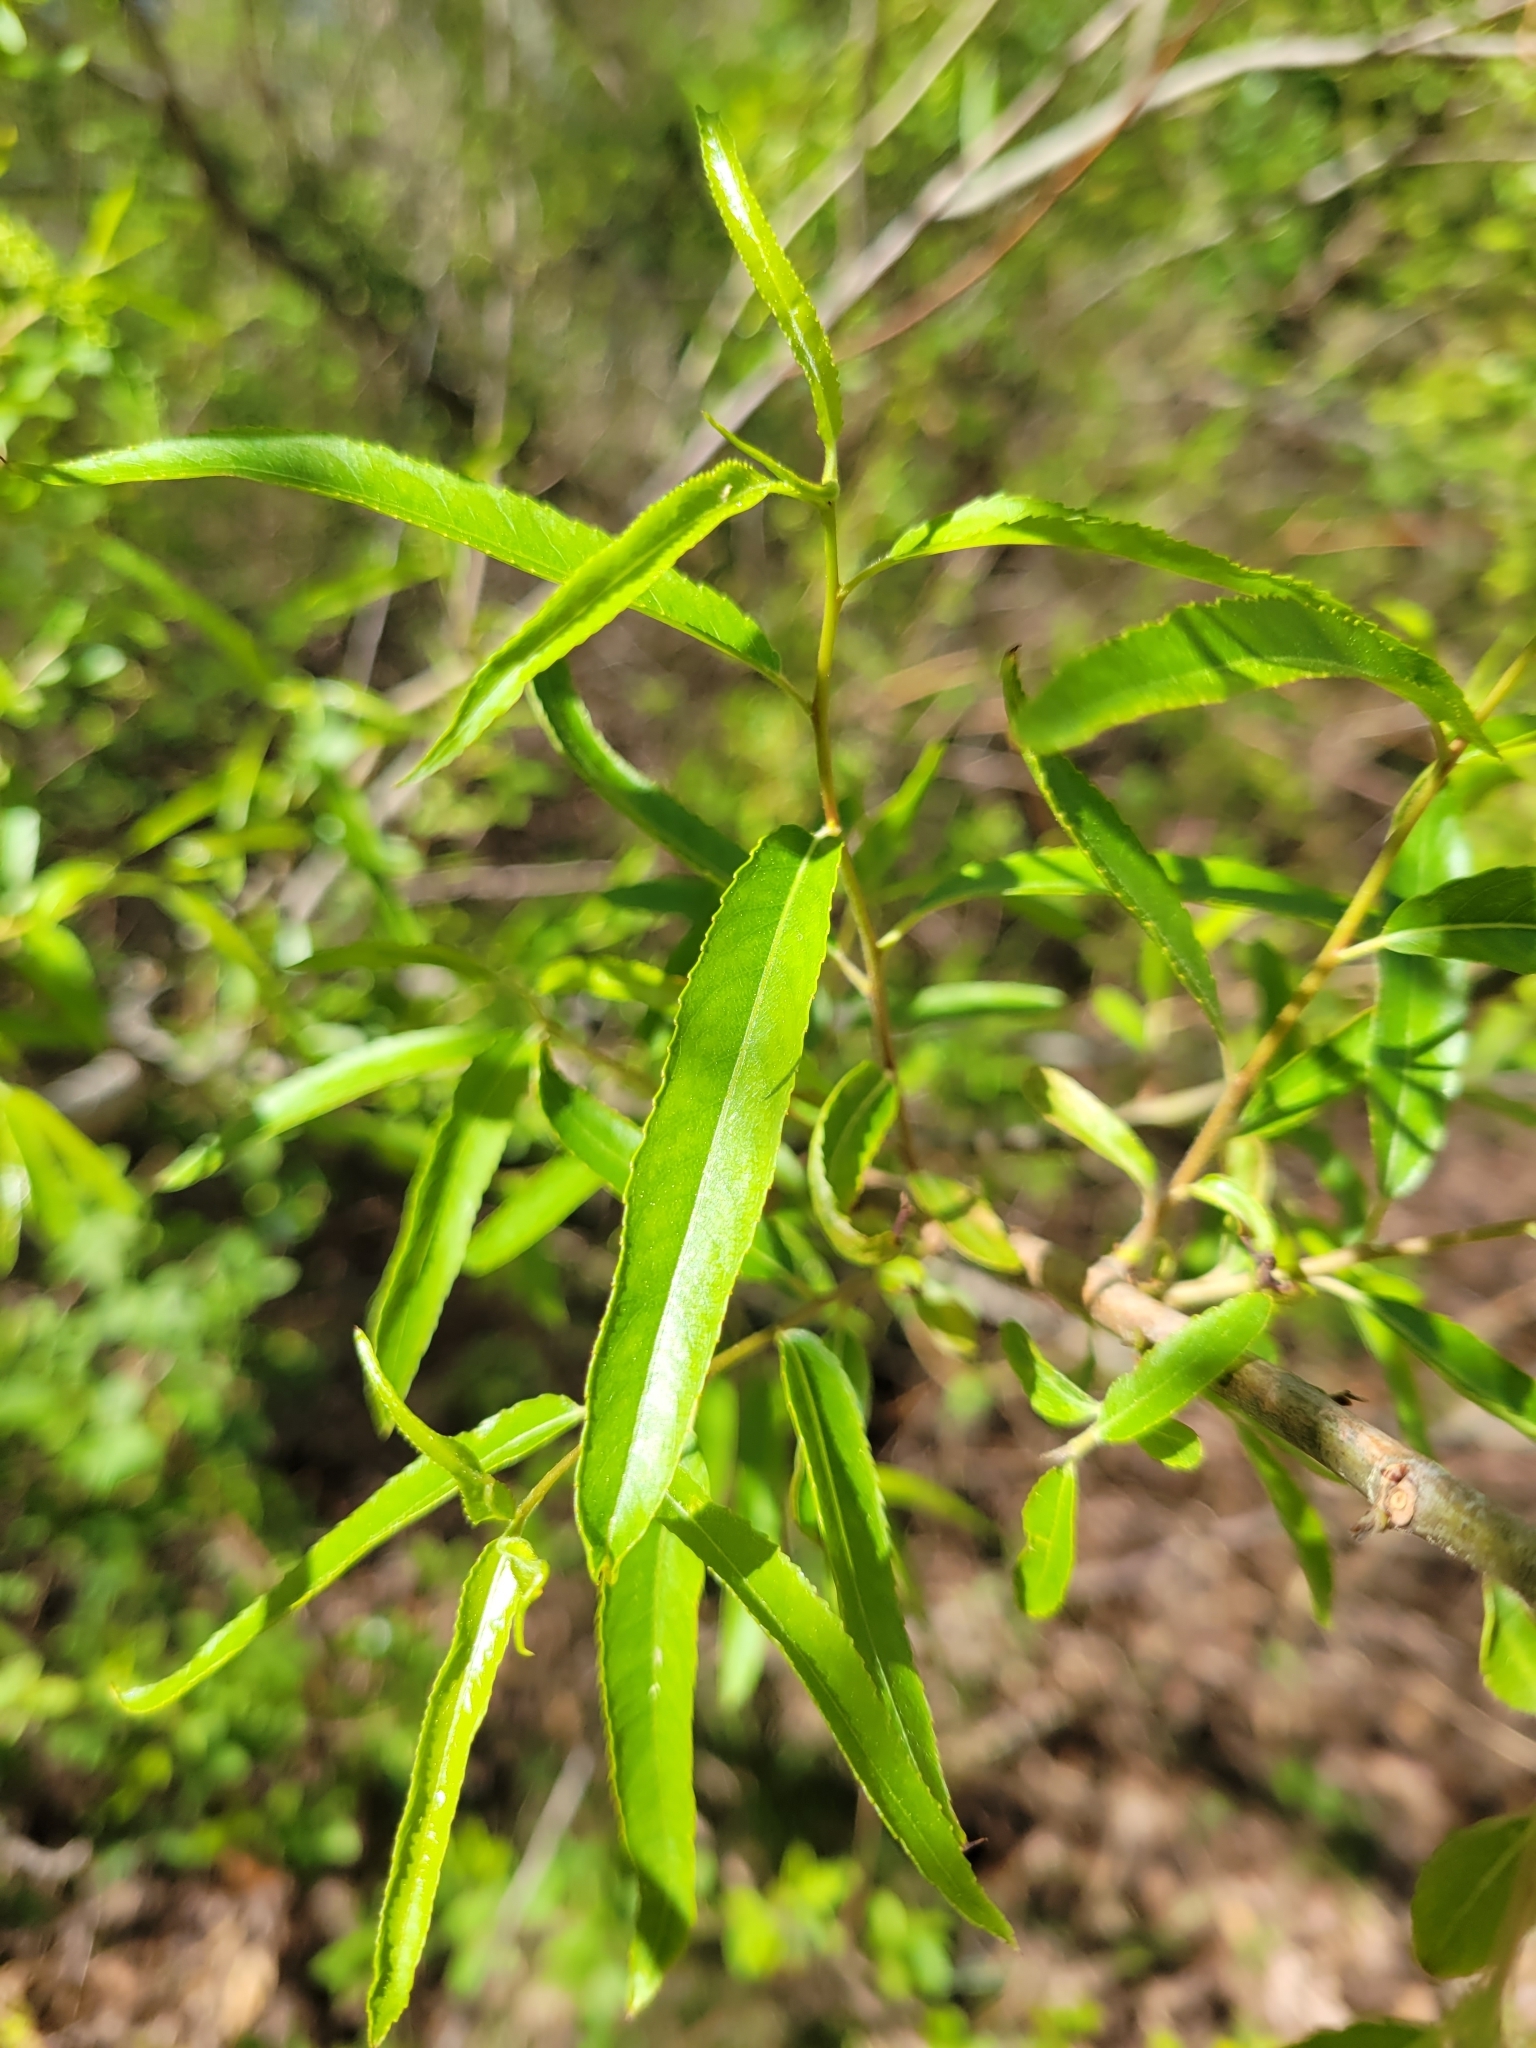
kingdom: Plantae
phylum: Tracheophyta
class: Magnoliopsida
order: Malpighiales
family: Salicaceae
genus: Salix
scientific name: Salix nigra
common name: Black willow
